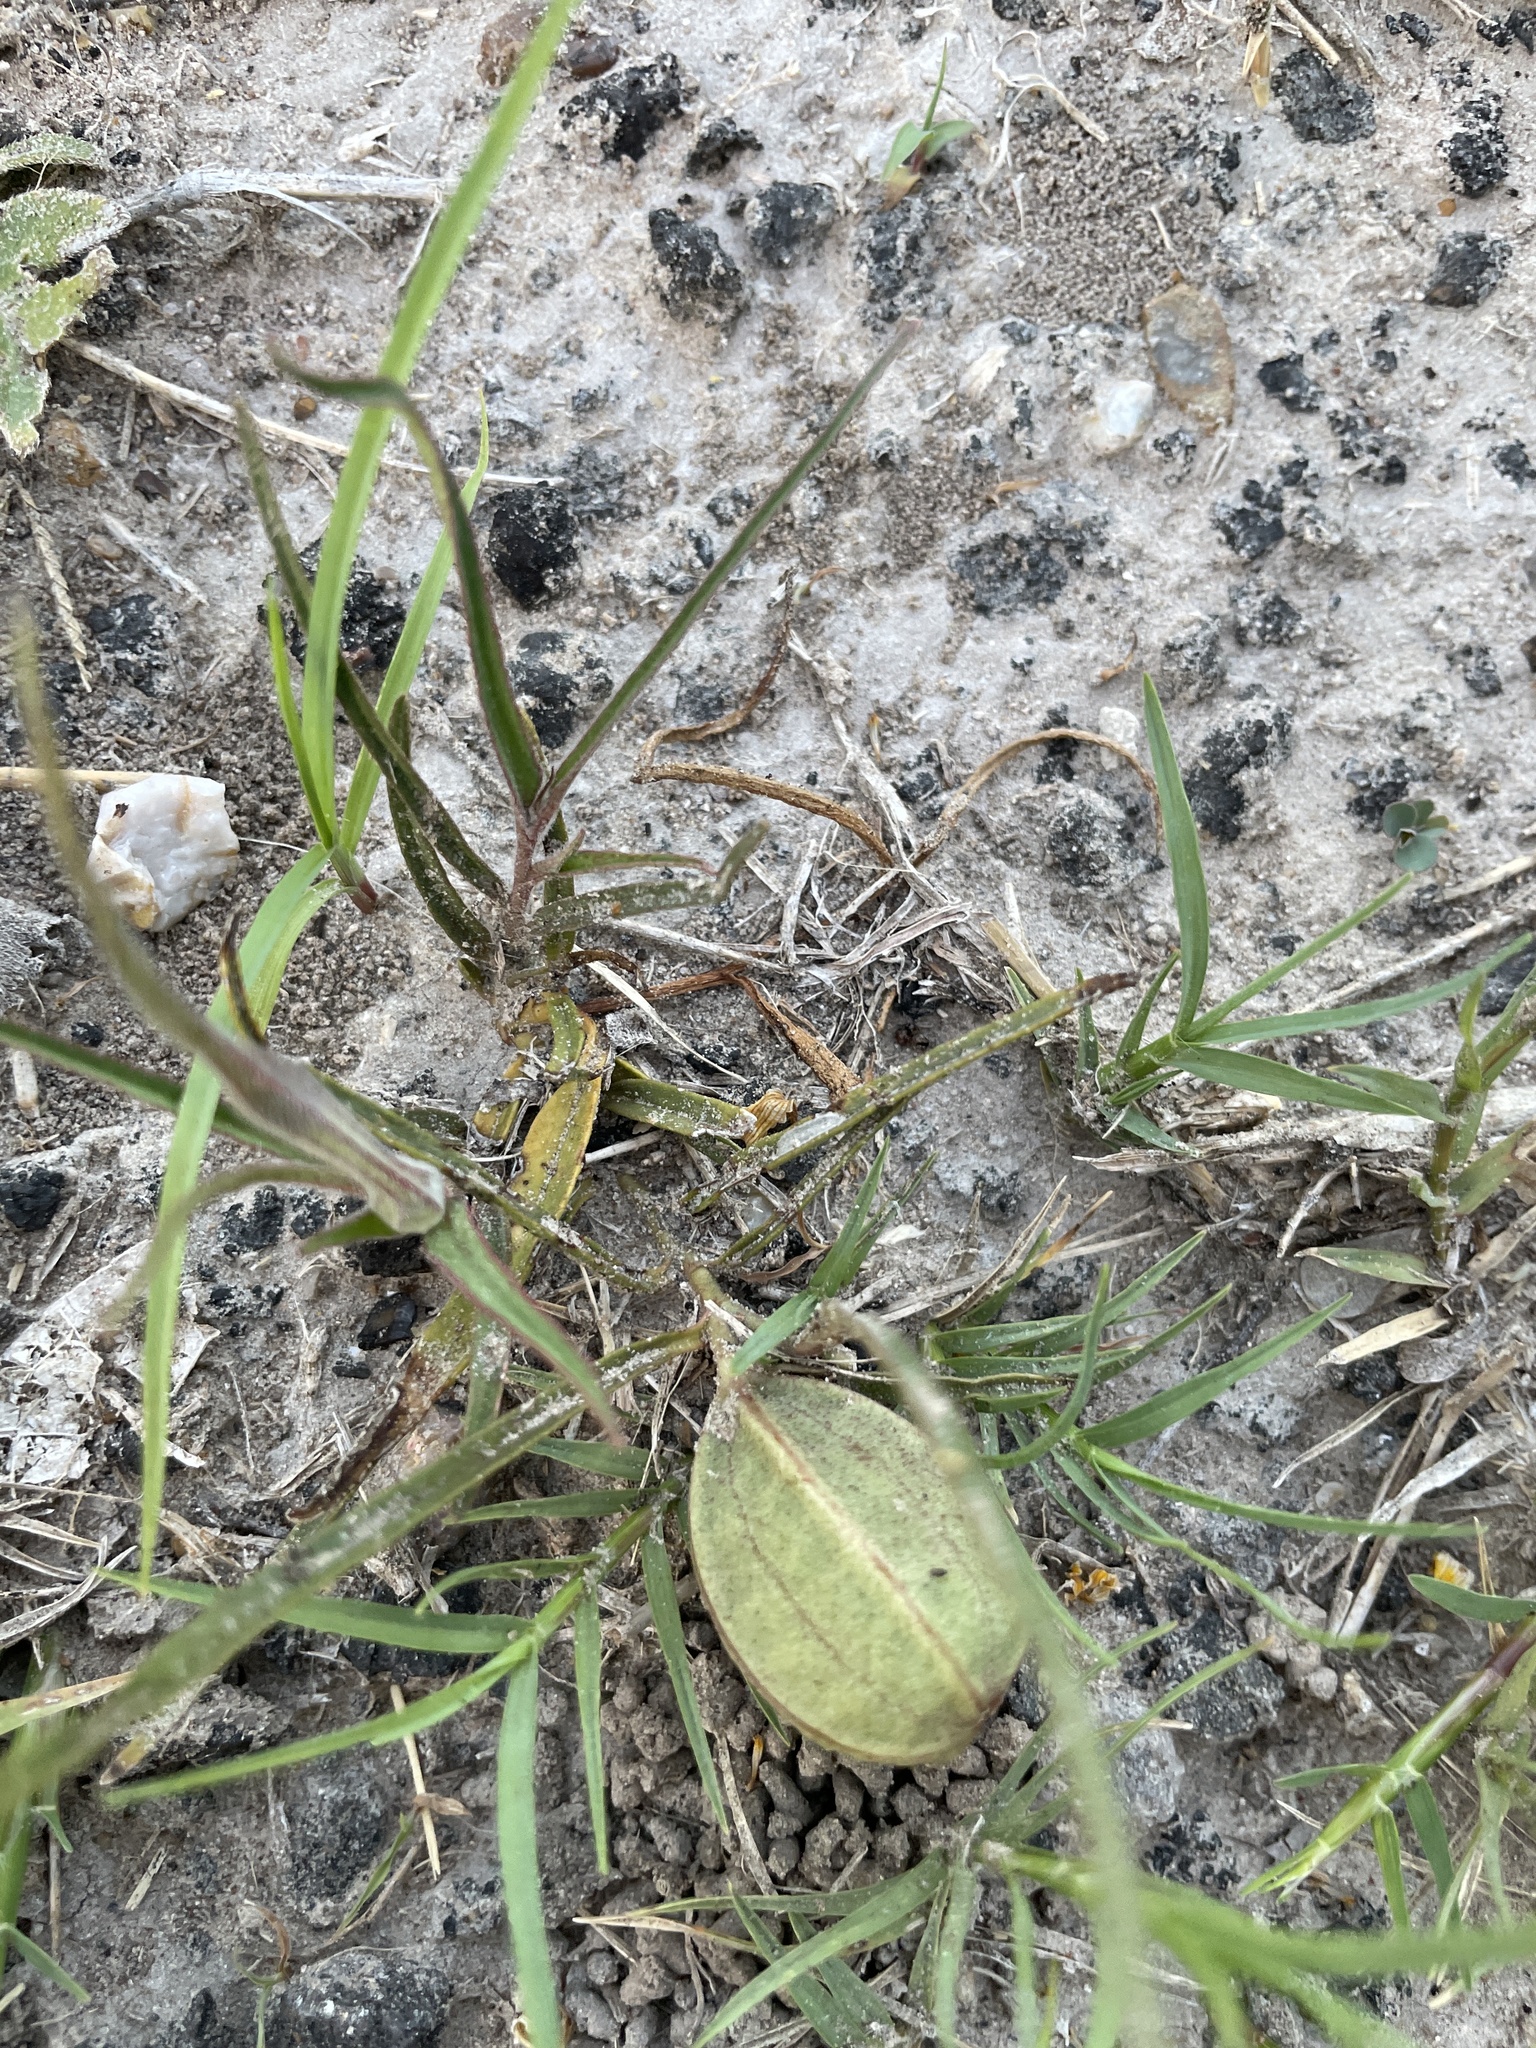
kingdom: Plantae
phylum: Tracheophyta
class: Magnoliopsida
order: Piperales
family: Aristolochiaceae
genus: Aristolochia
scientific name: Aristolochia erecta
